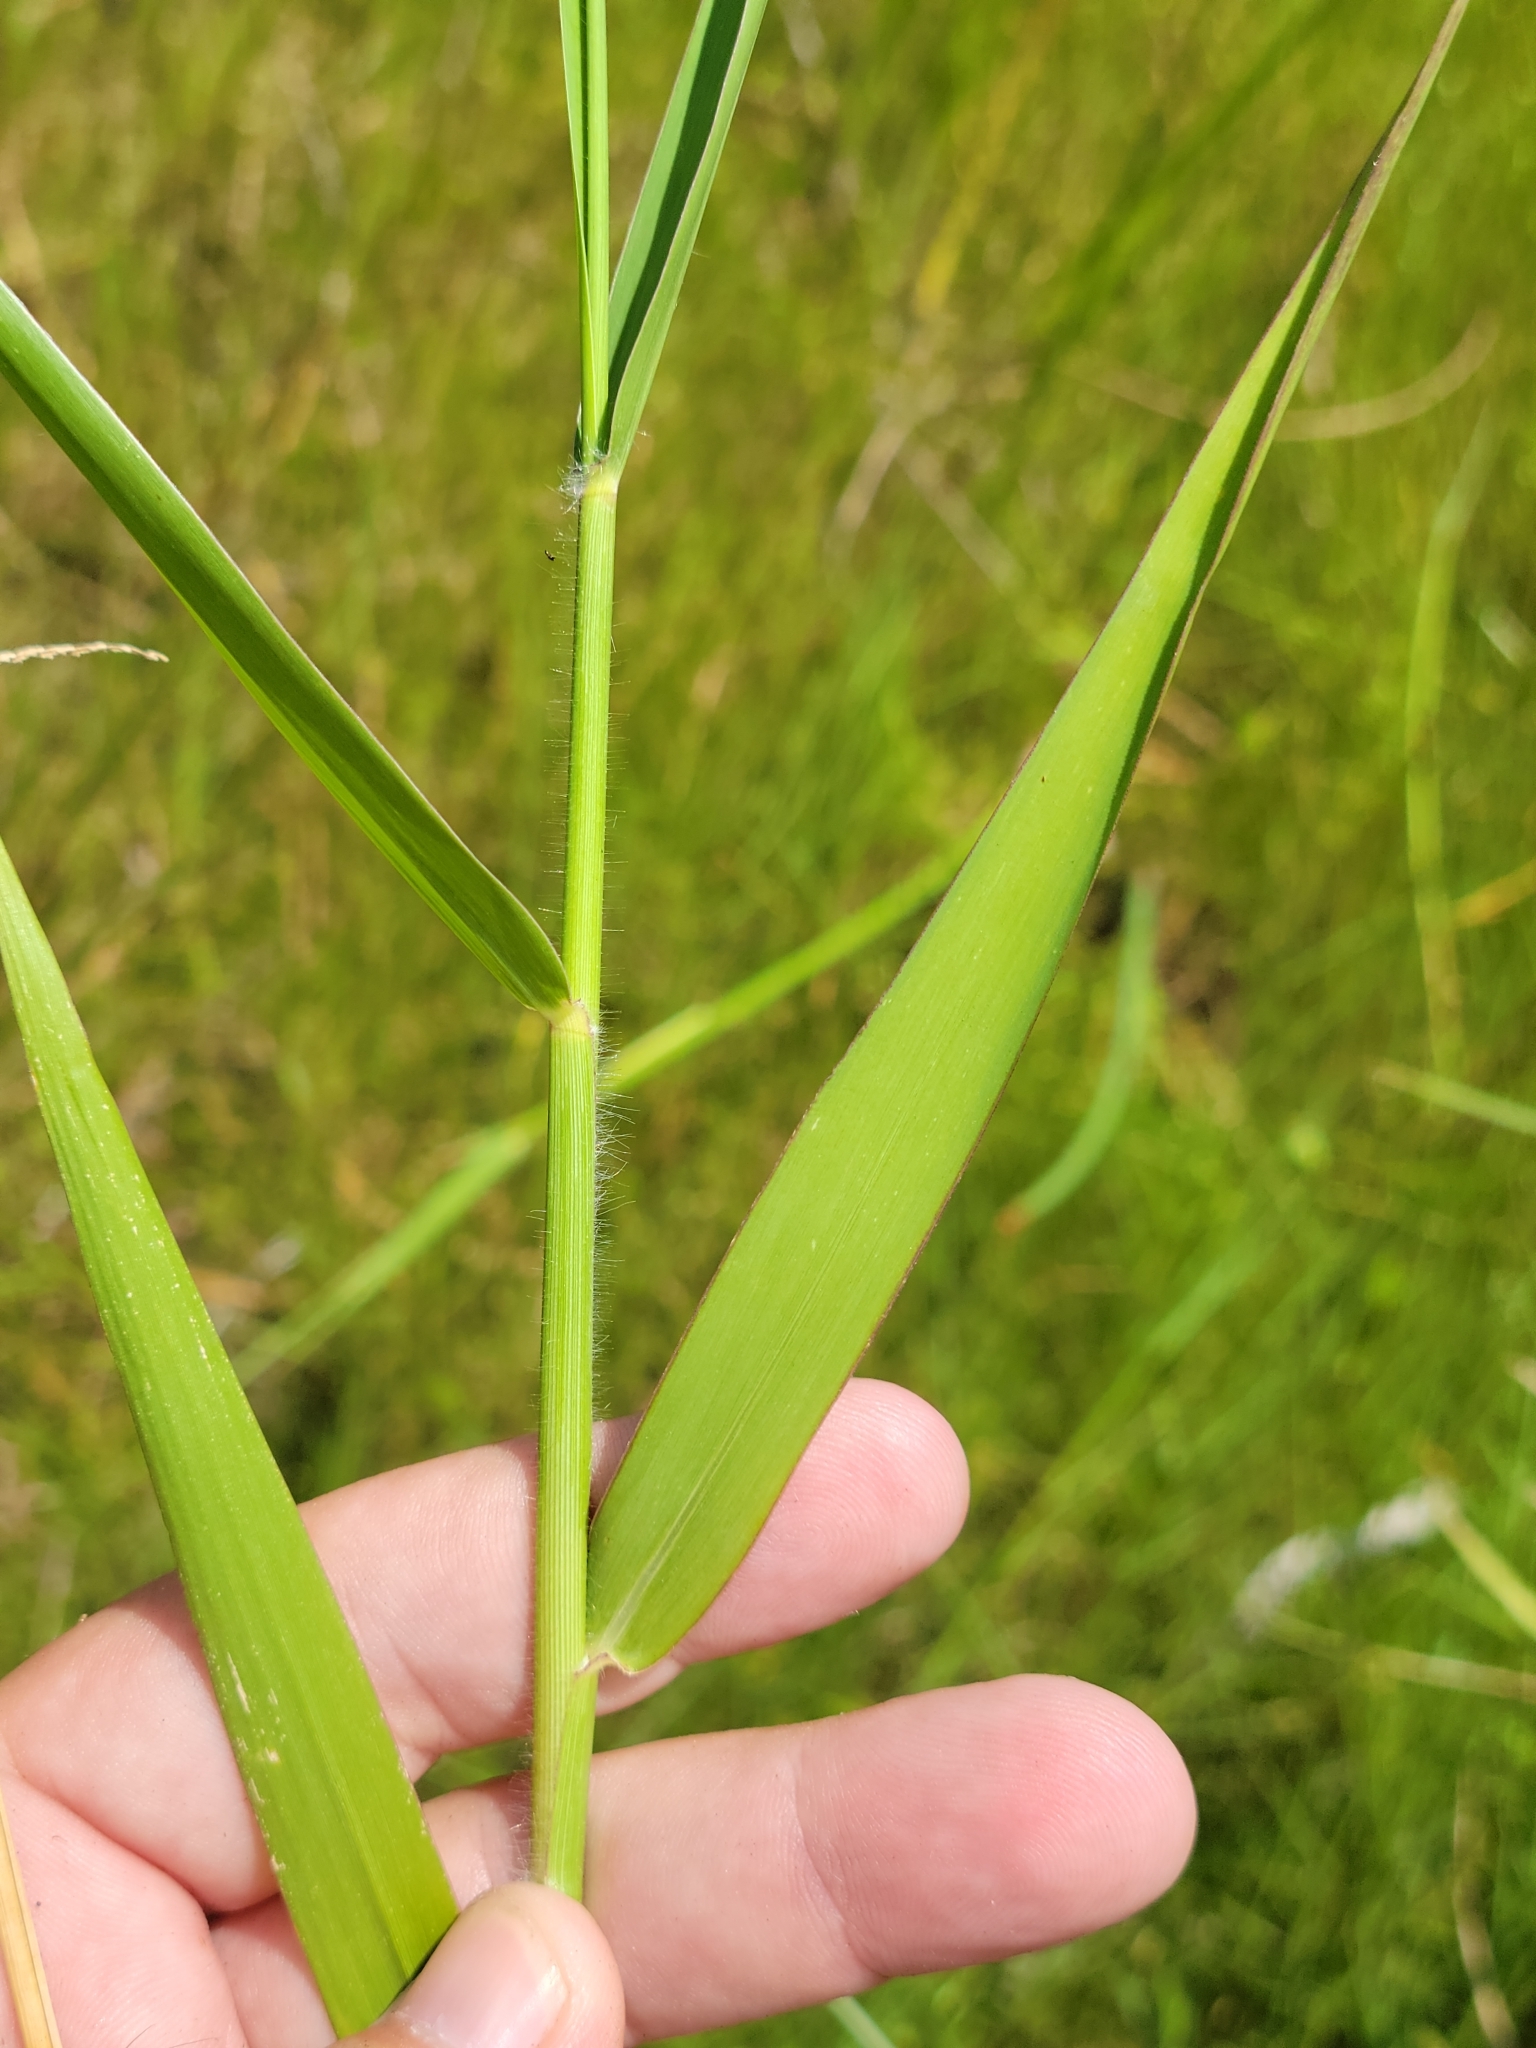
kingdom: Plantae
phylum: Tracheophyta
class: Liliopsida
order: Poales
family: Poaceae
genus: Urochloa
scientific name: Urochloa polystachya
